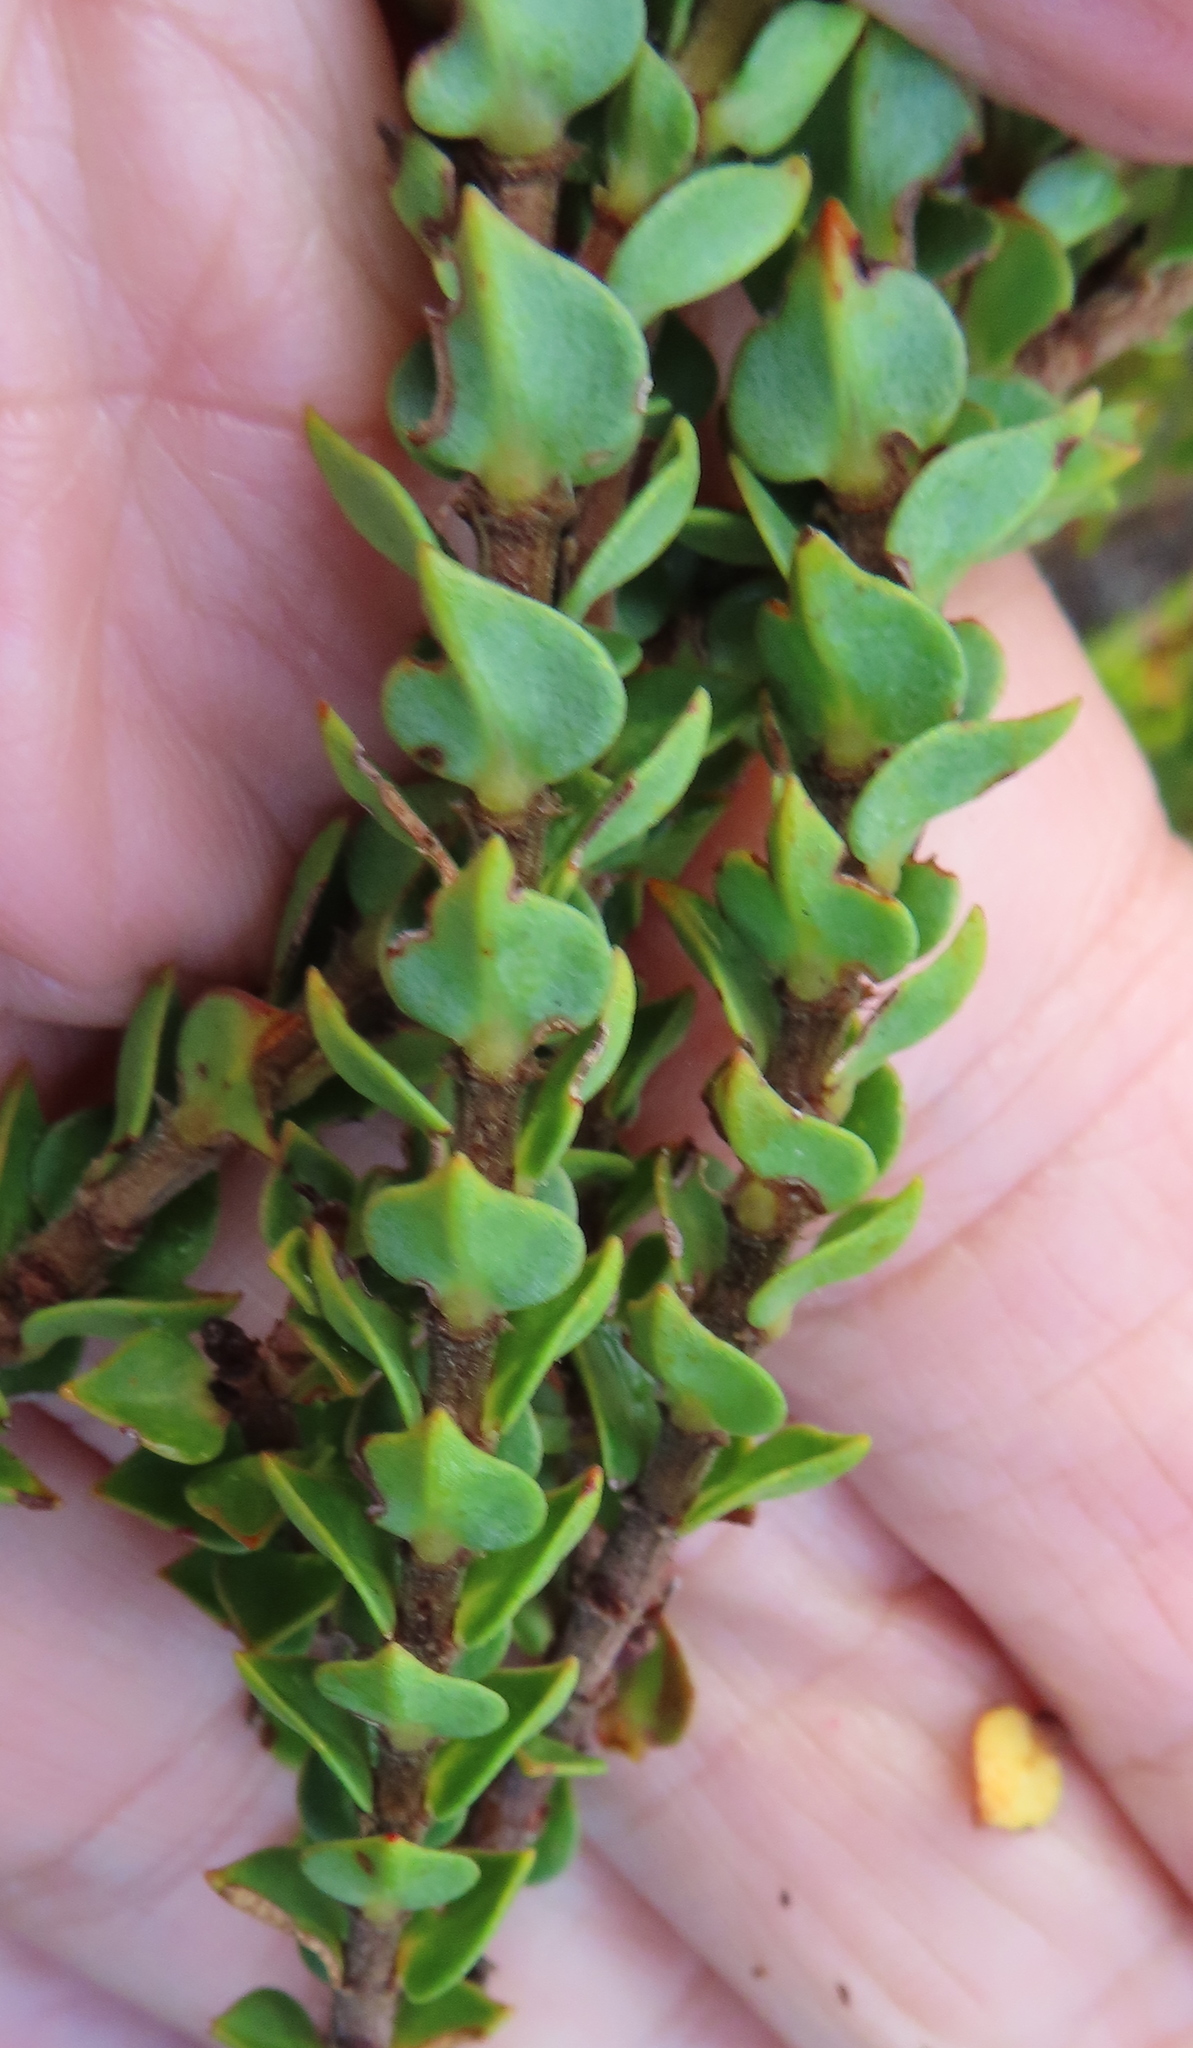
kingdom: Plantae
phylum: Tracheophyta
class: Magnoliopsida
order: Myrtales
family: Penaeaceae
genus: Penaea
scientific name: Penaea mucronata
